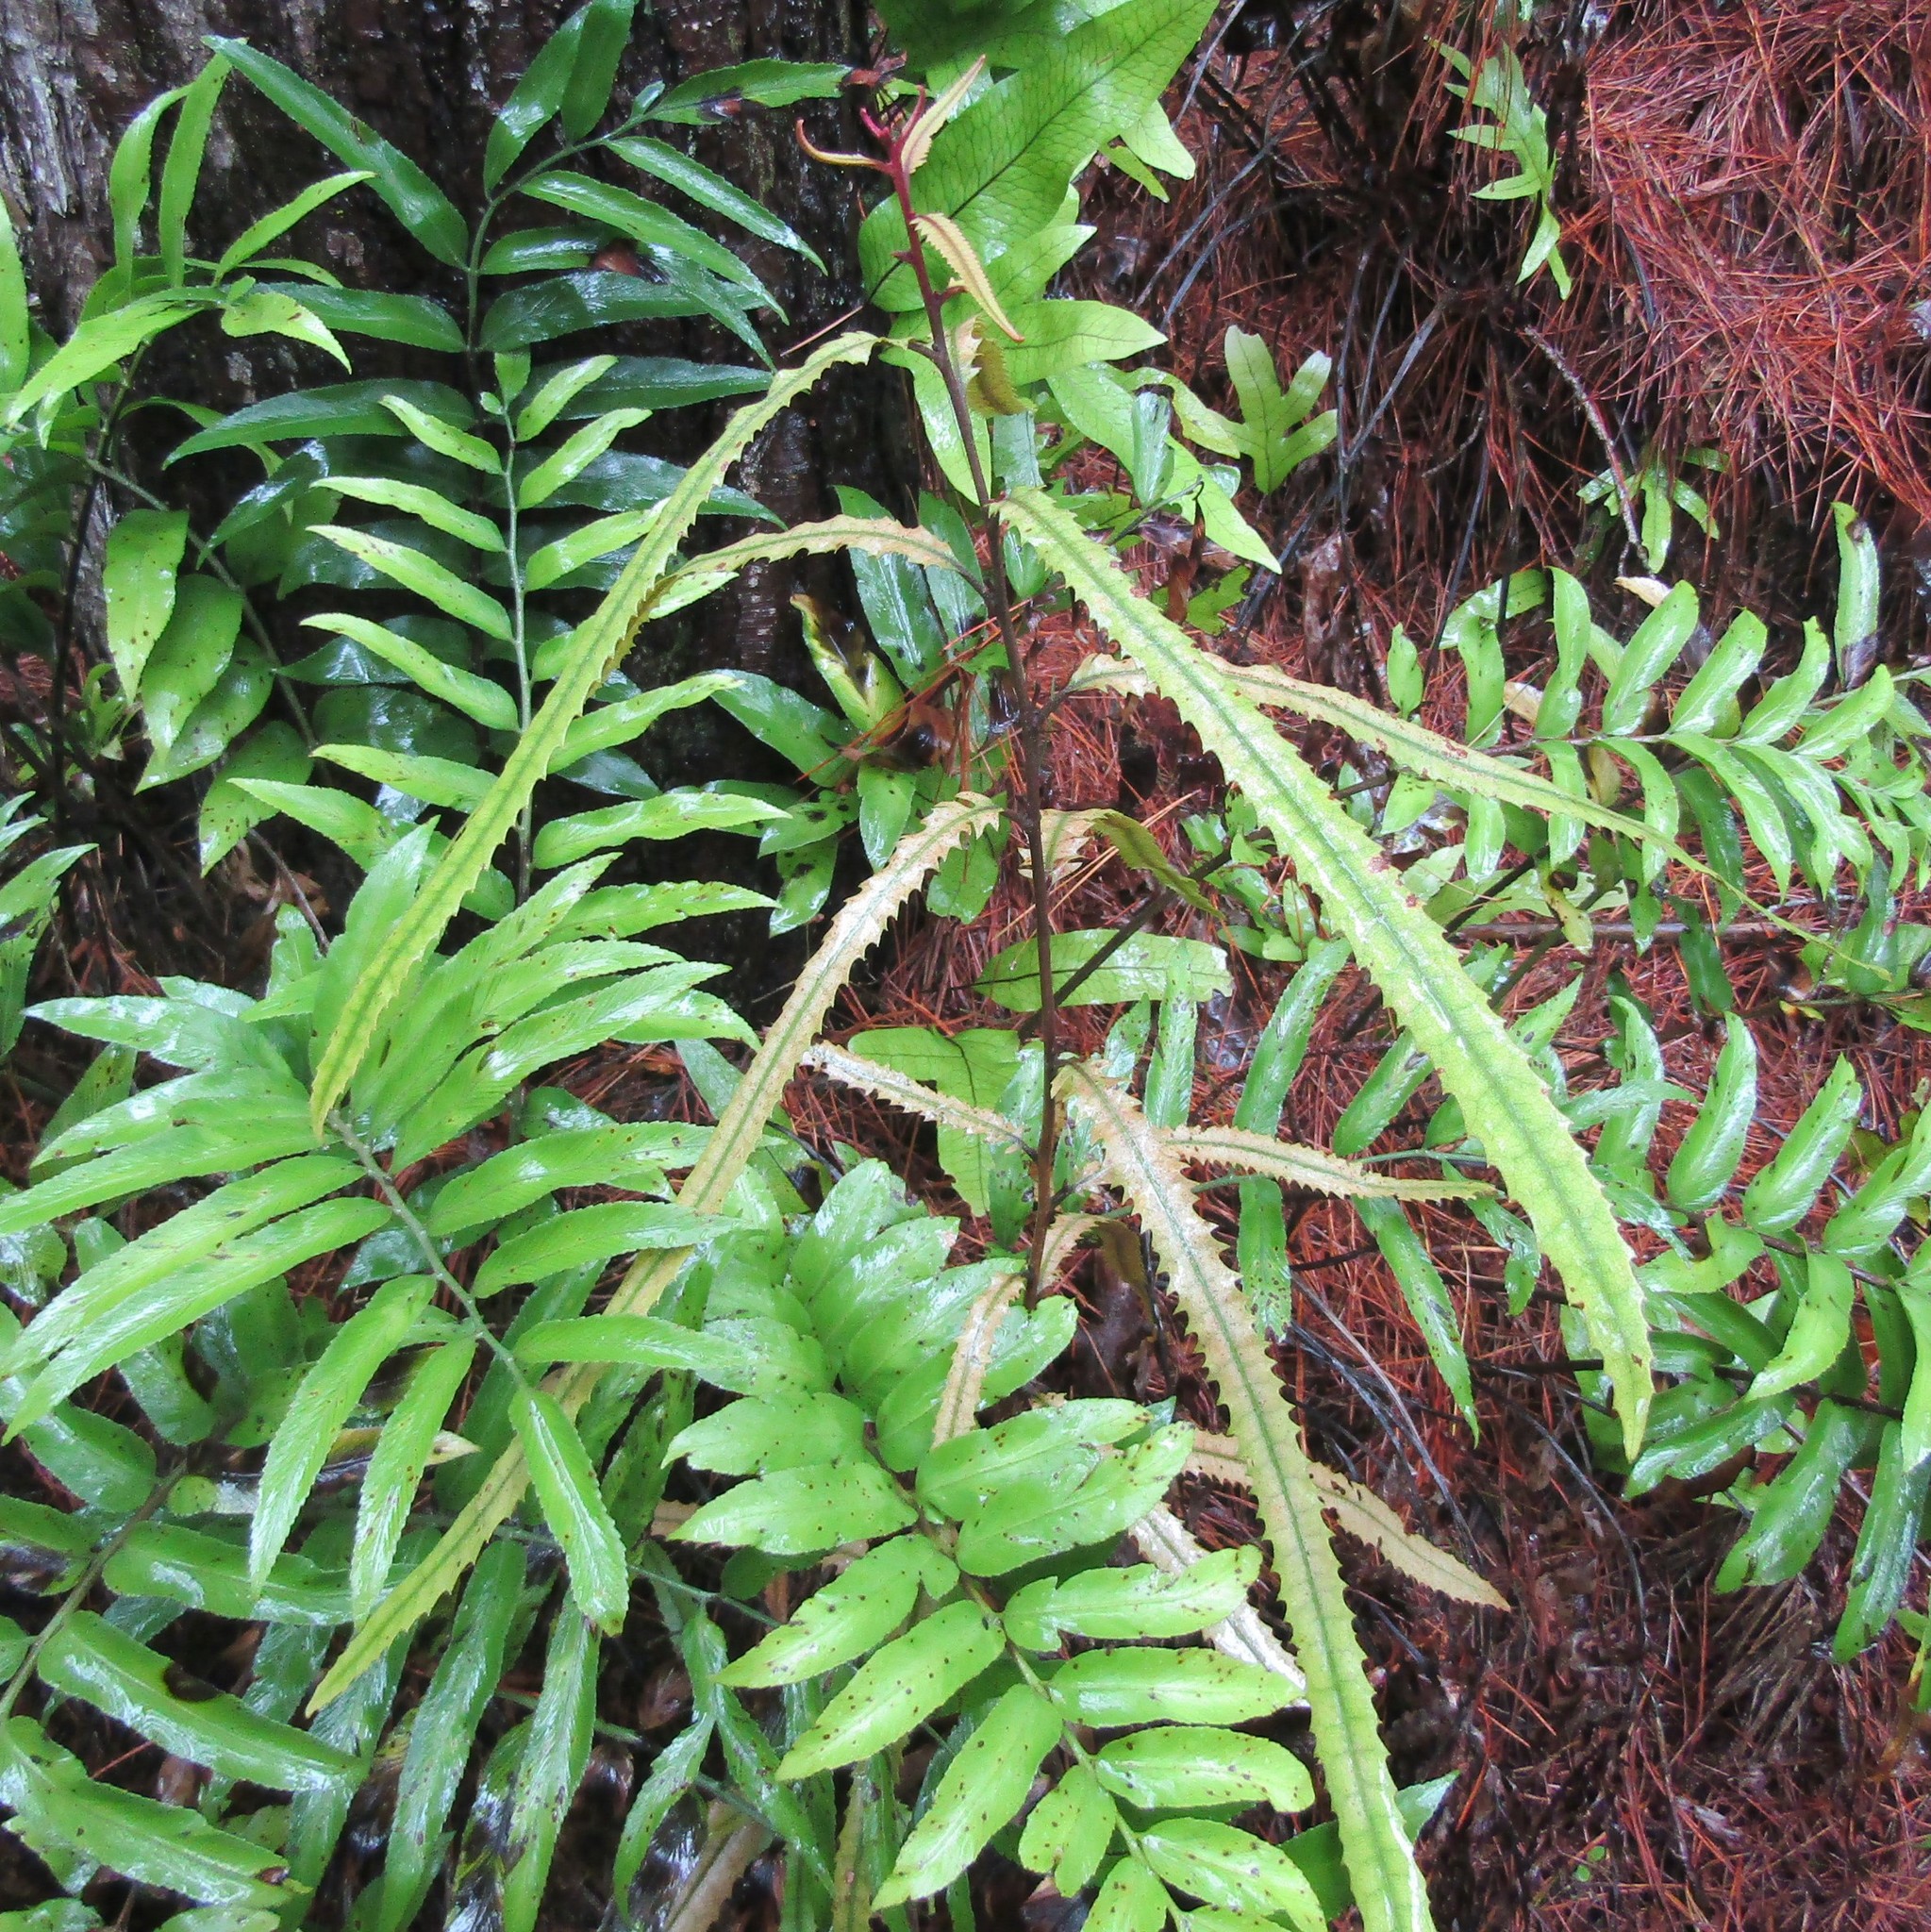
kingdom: Plantae
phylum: Tracheophyta
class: Magnoliopsida
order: Proteales
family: Proteaceae
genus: Knightia
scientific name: Knightia excelsa
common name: New zealand-honeysuckle
